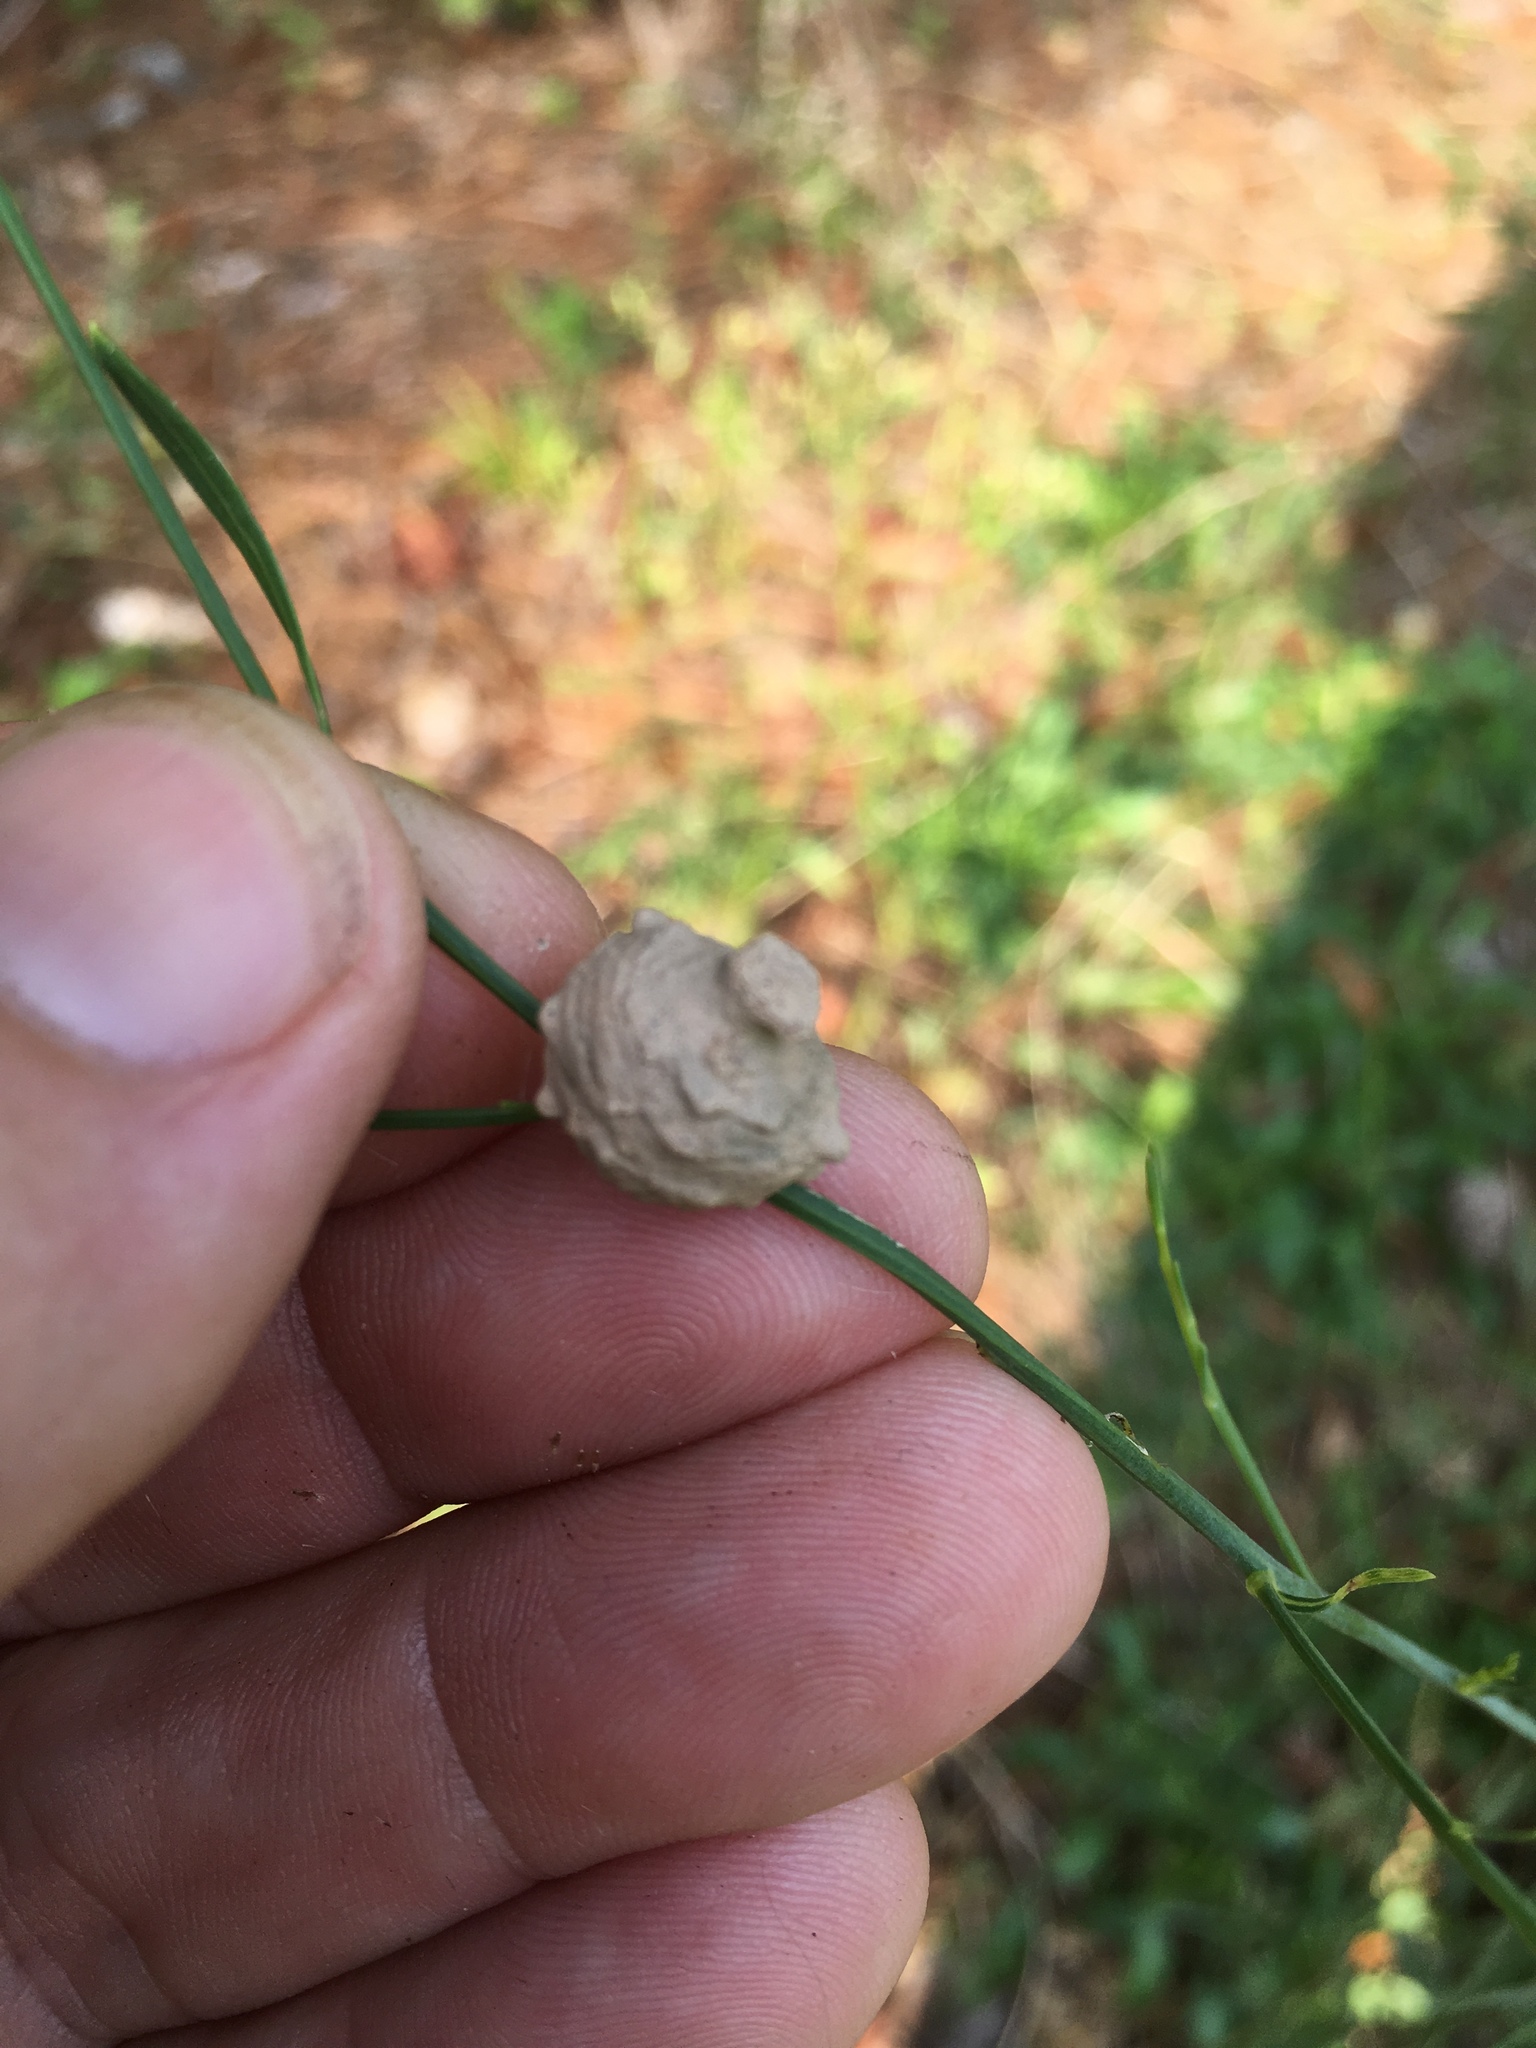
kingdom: Animalia
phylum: Arthropoda
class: Insecta
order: Hymenoptera
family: Vespidae
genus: Eumenes
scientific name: Eumenes
